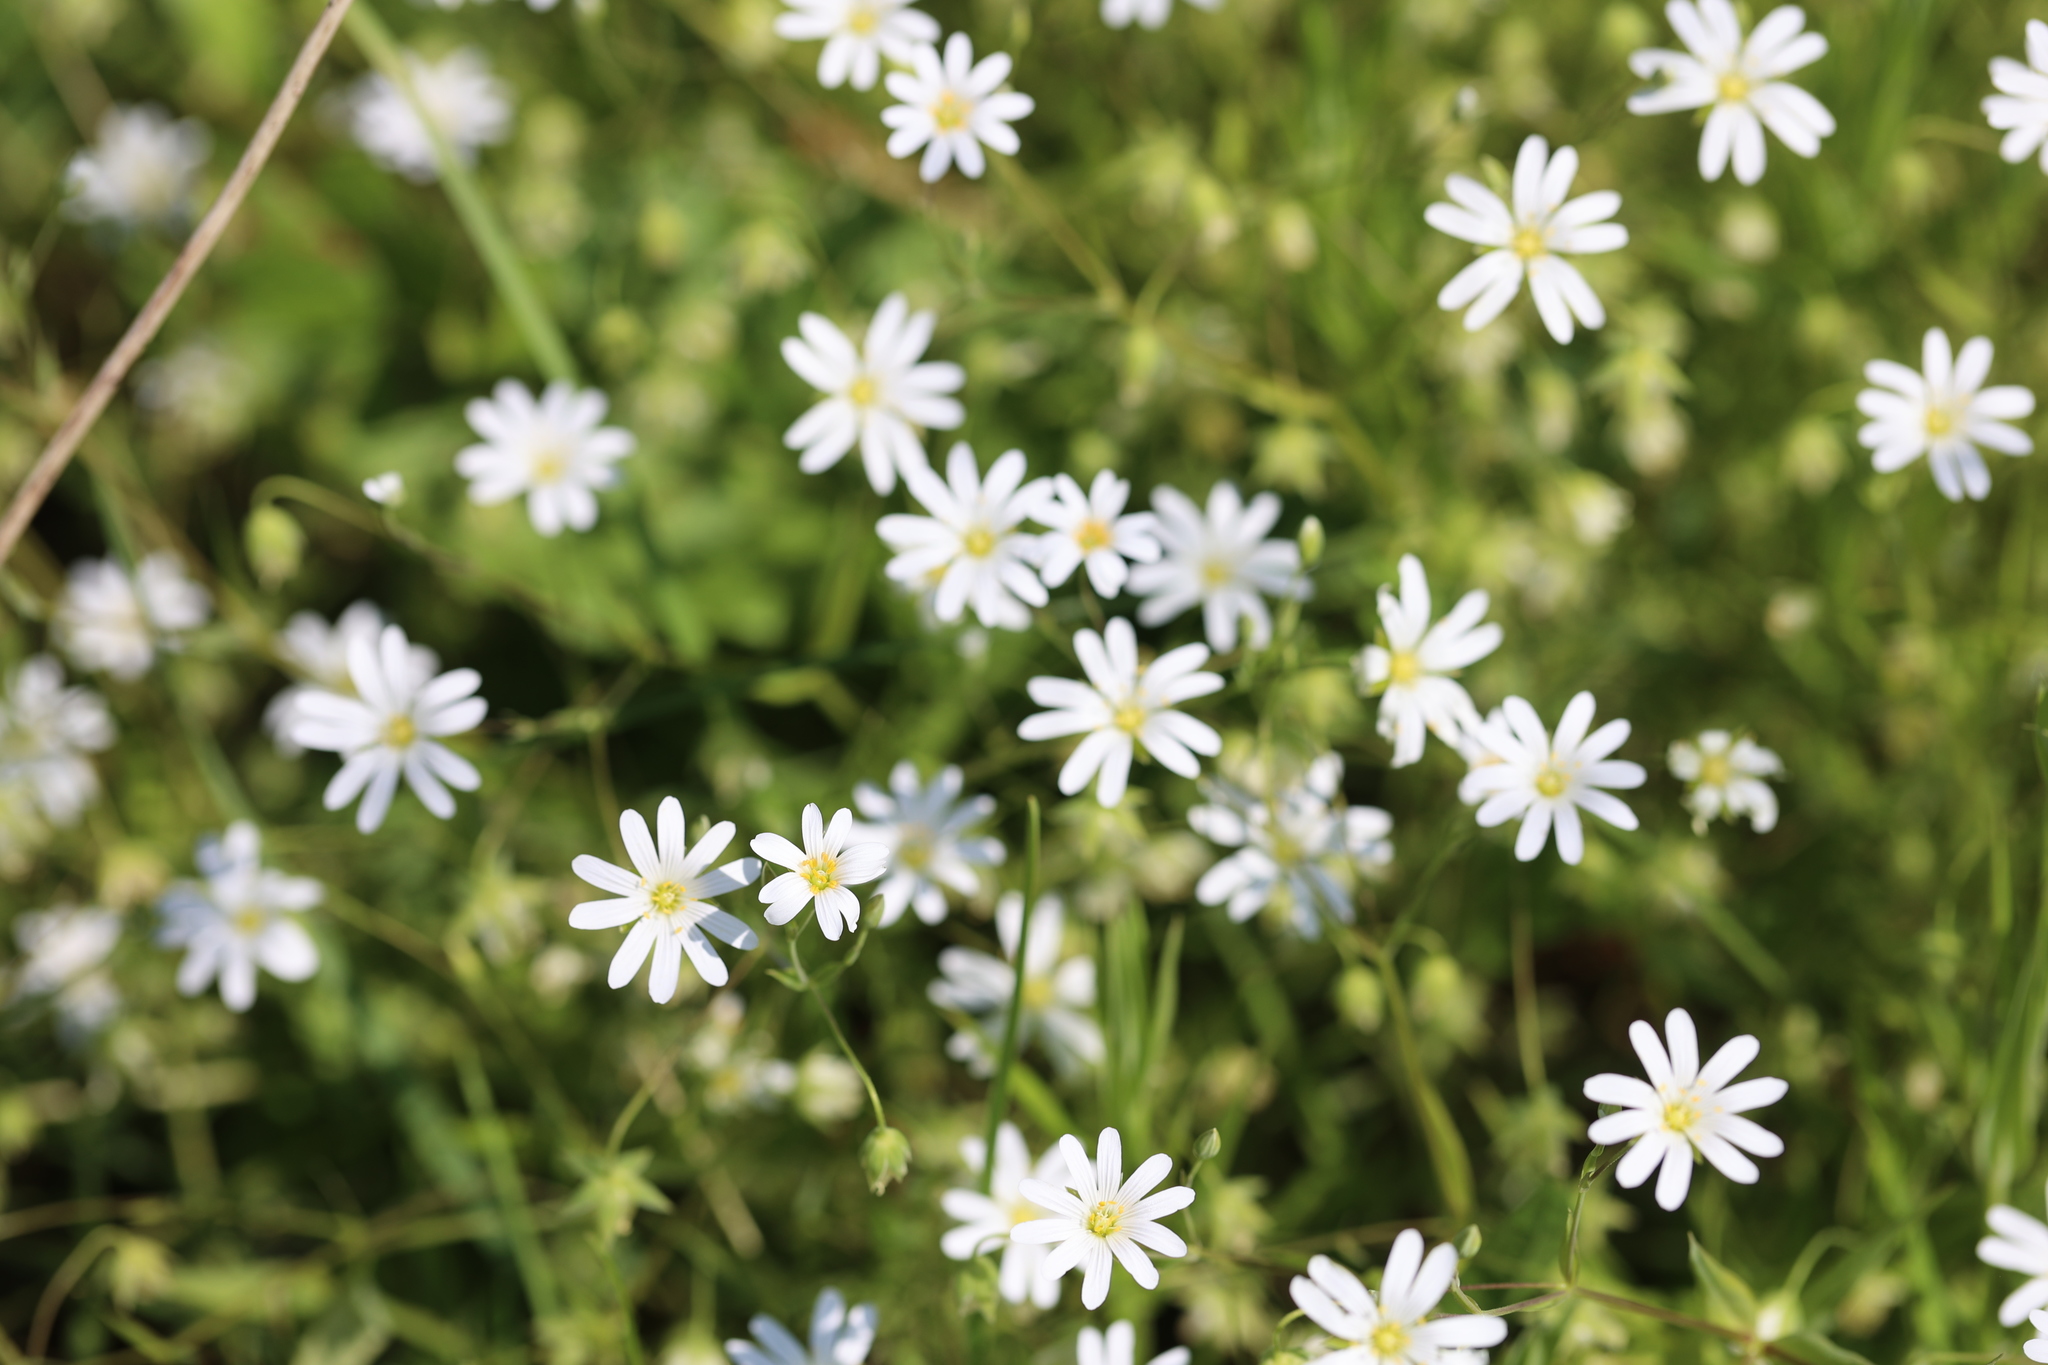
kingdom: Plantae
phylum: Tracheophyta
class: Magnoliopsida
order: Caryophyllales
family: Caryophyllaceae
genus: Rabelera
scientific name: Rabelera holostea
